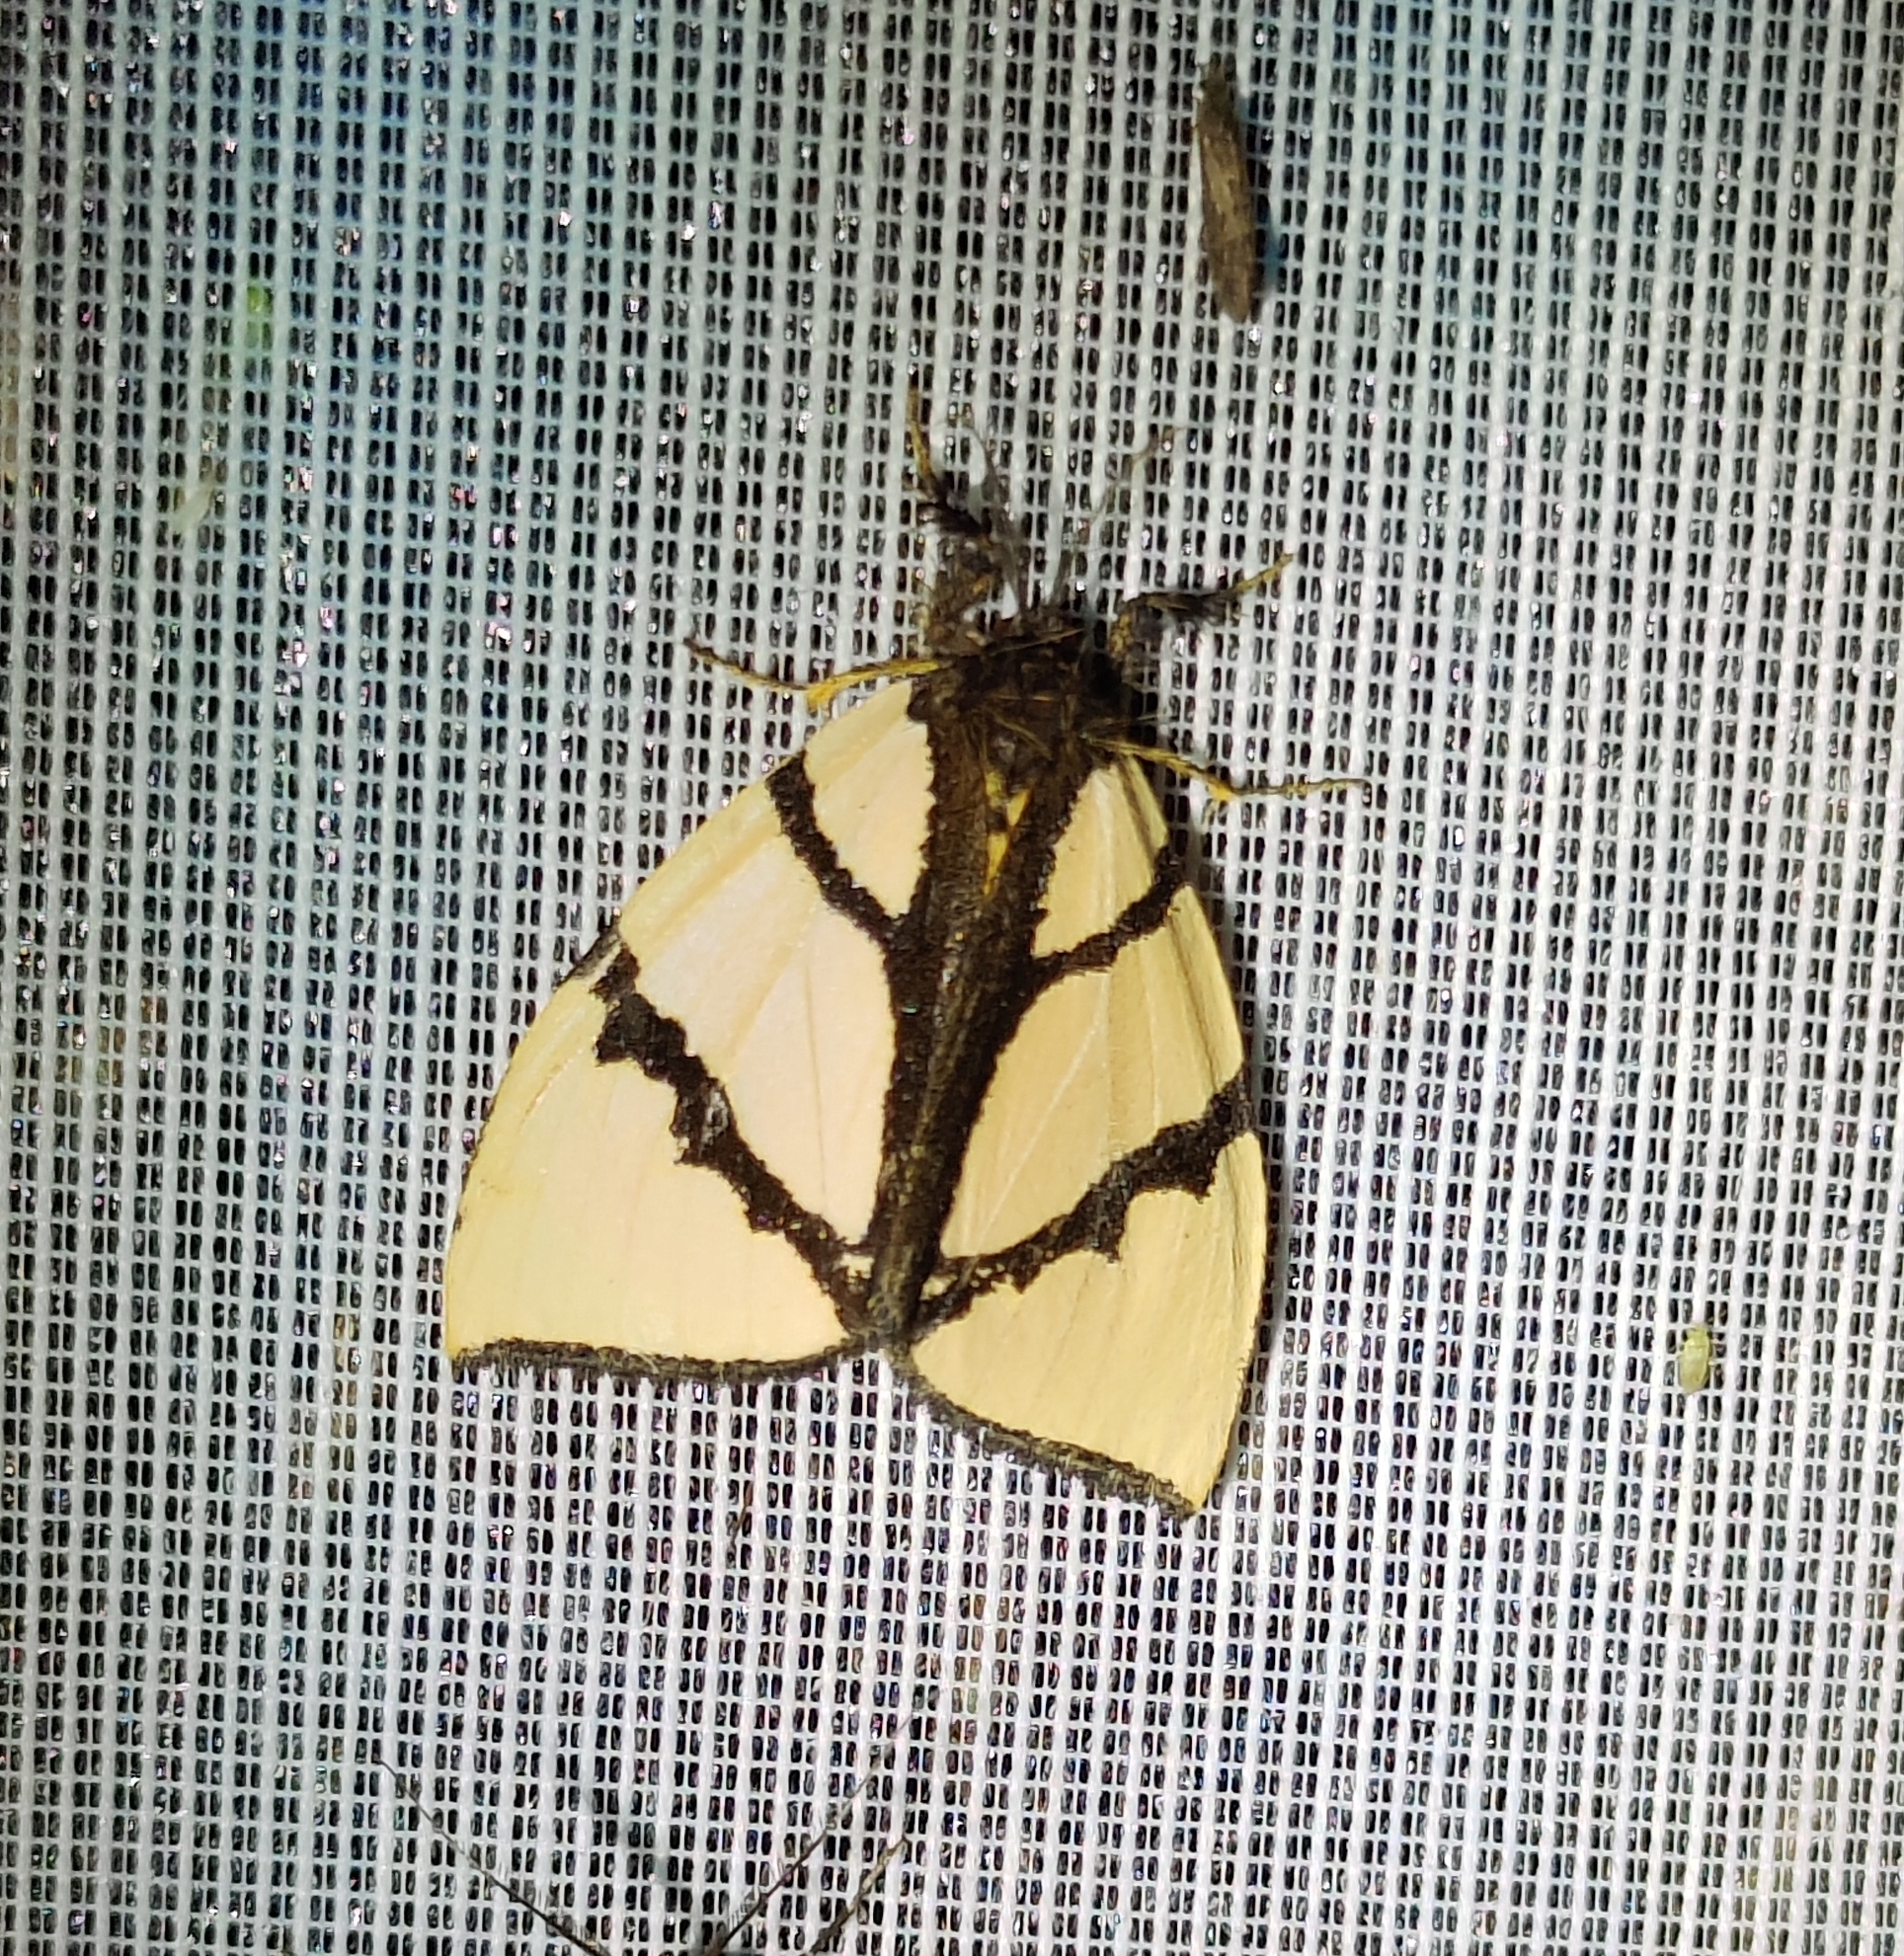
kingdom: Animalia
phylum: Arthropoda
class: Insecta
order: Lepidoptera
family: Erebidae
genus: Numenes
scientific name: Numenes siletti
